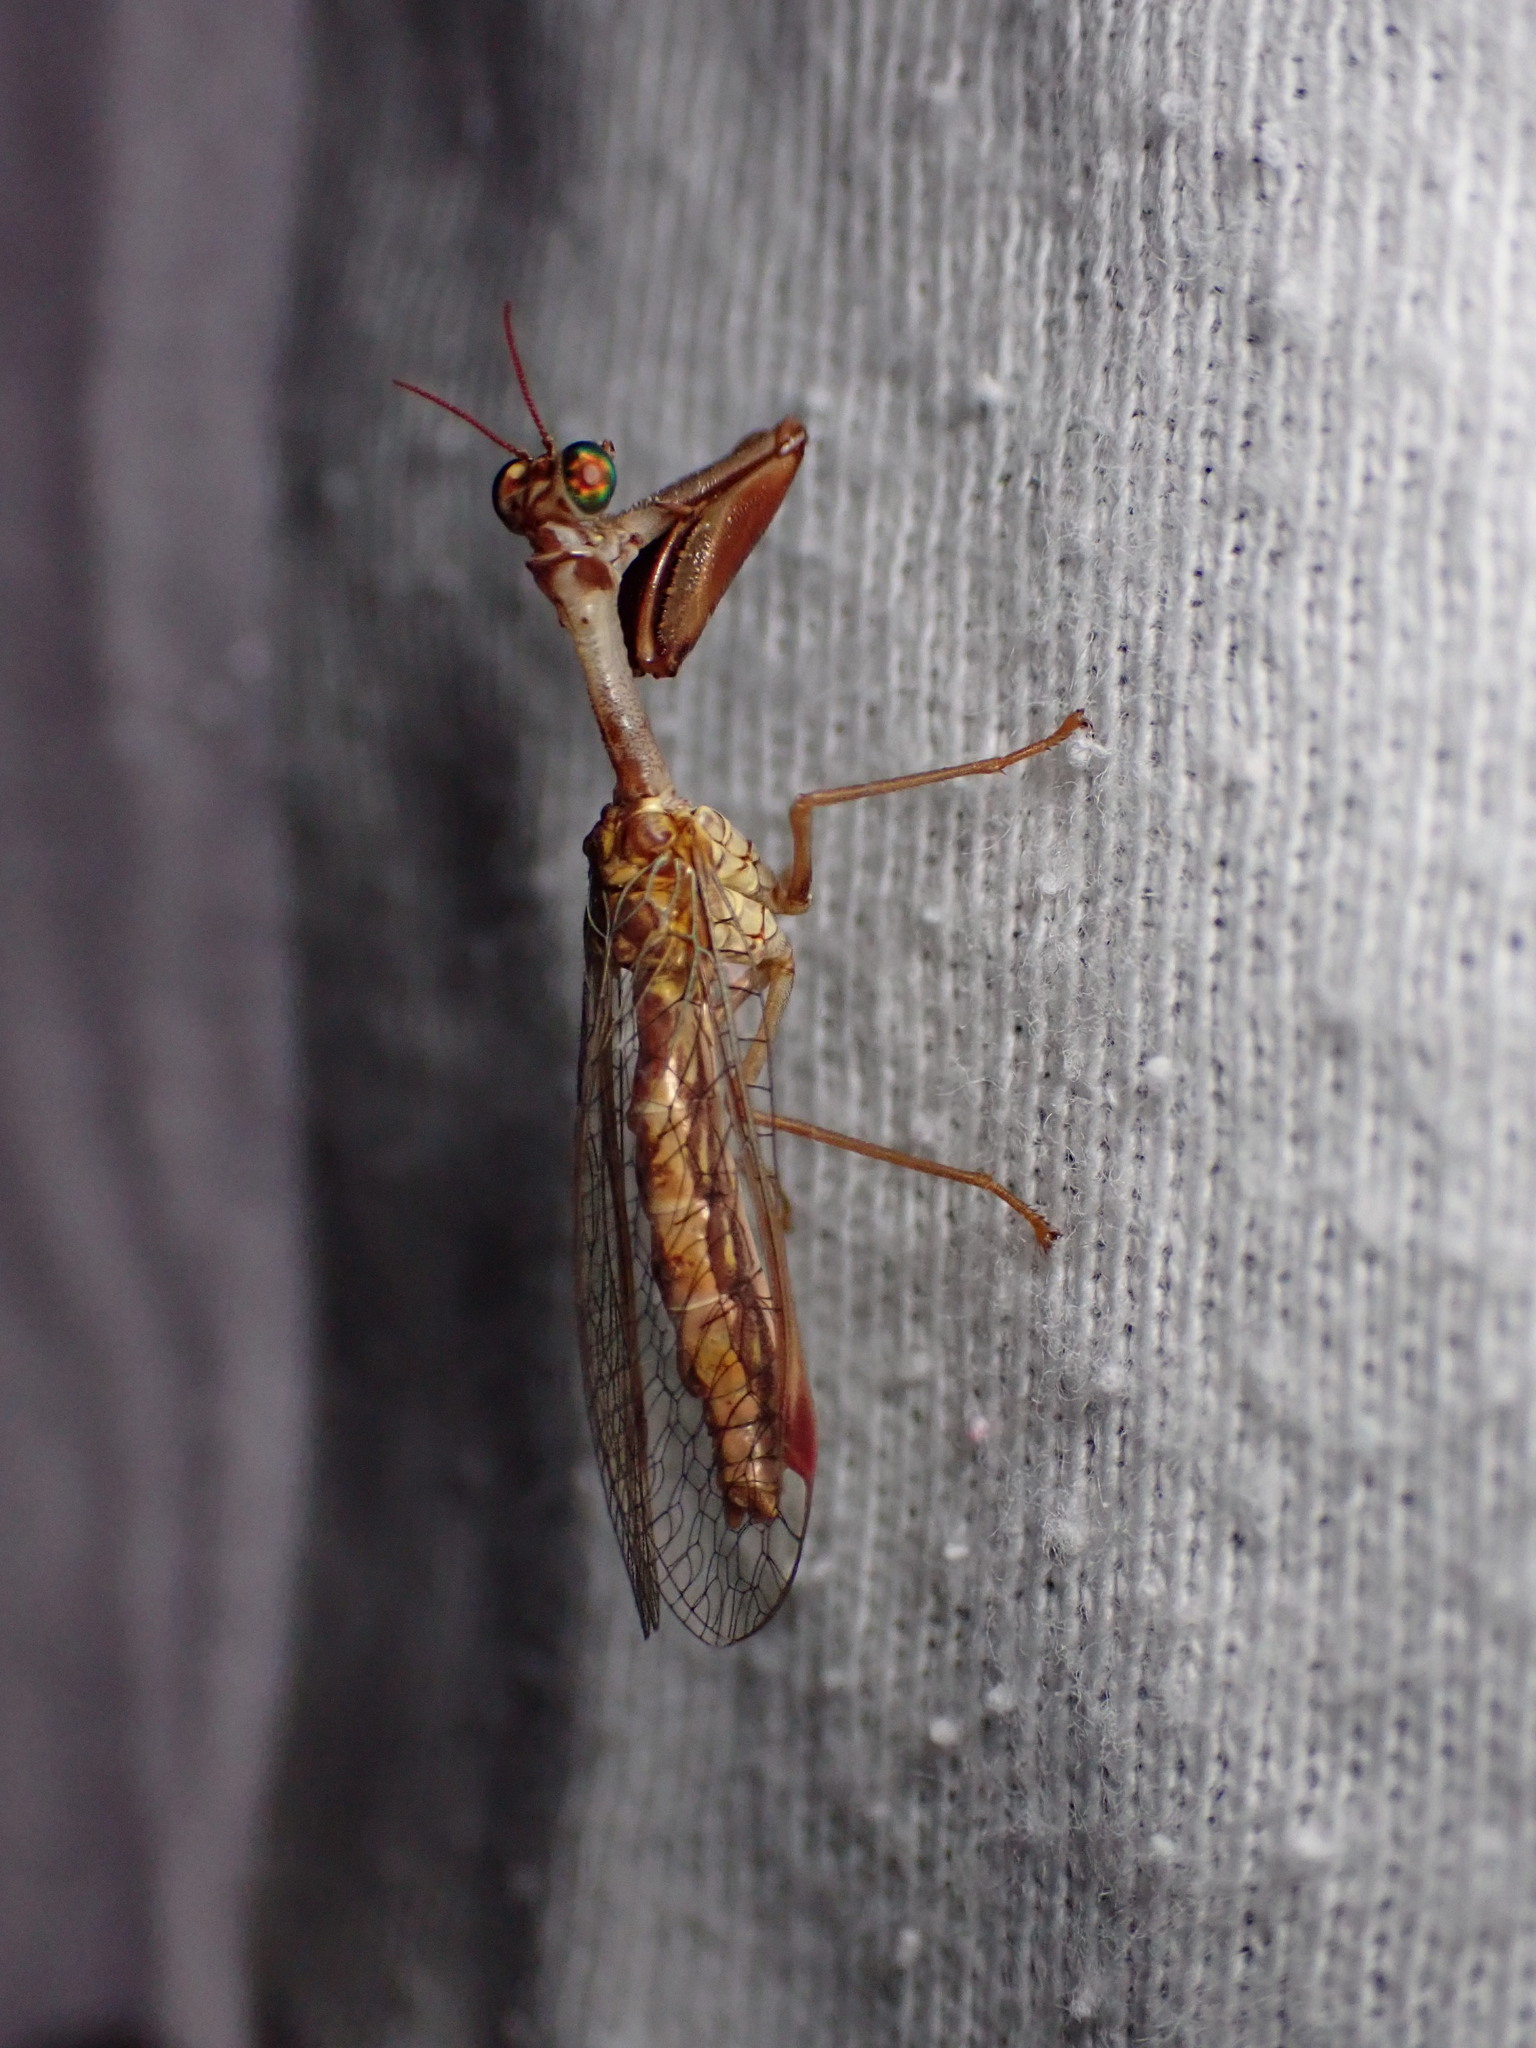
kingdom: Animalia
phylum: Arthropoda
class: Insecta
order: Neuroptera
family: Mantispidae
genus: Mantispa
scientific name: Mantispa styriaca
